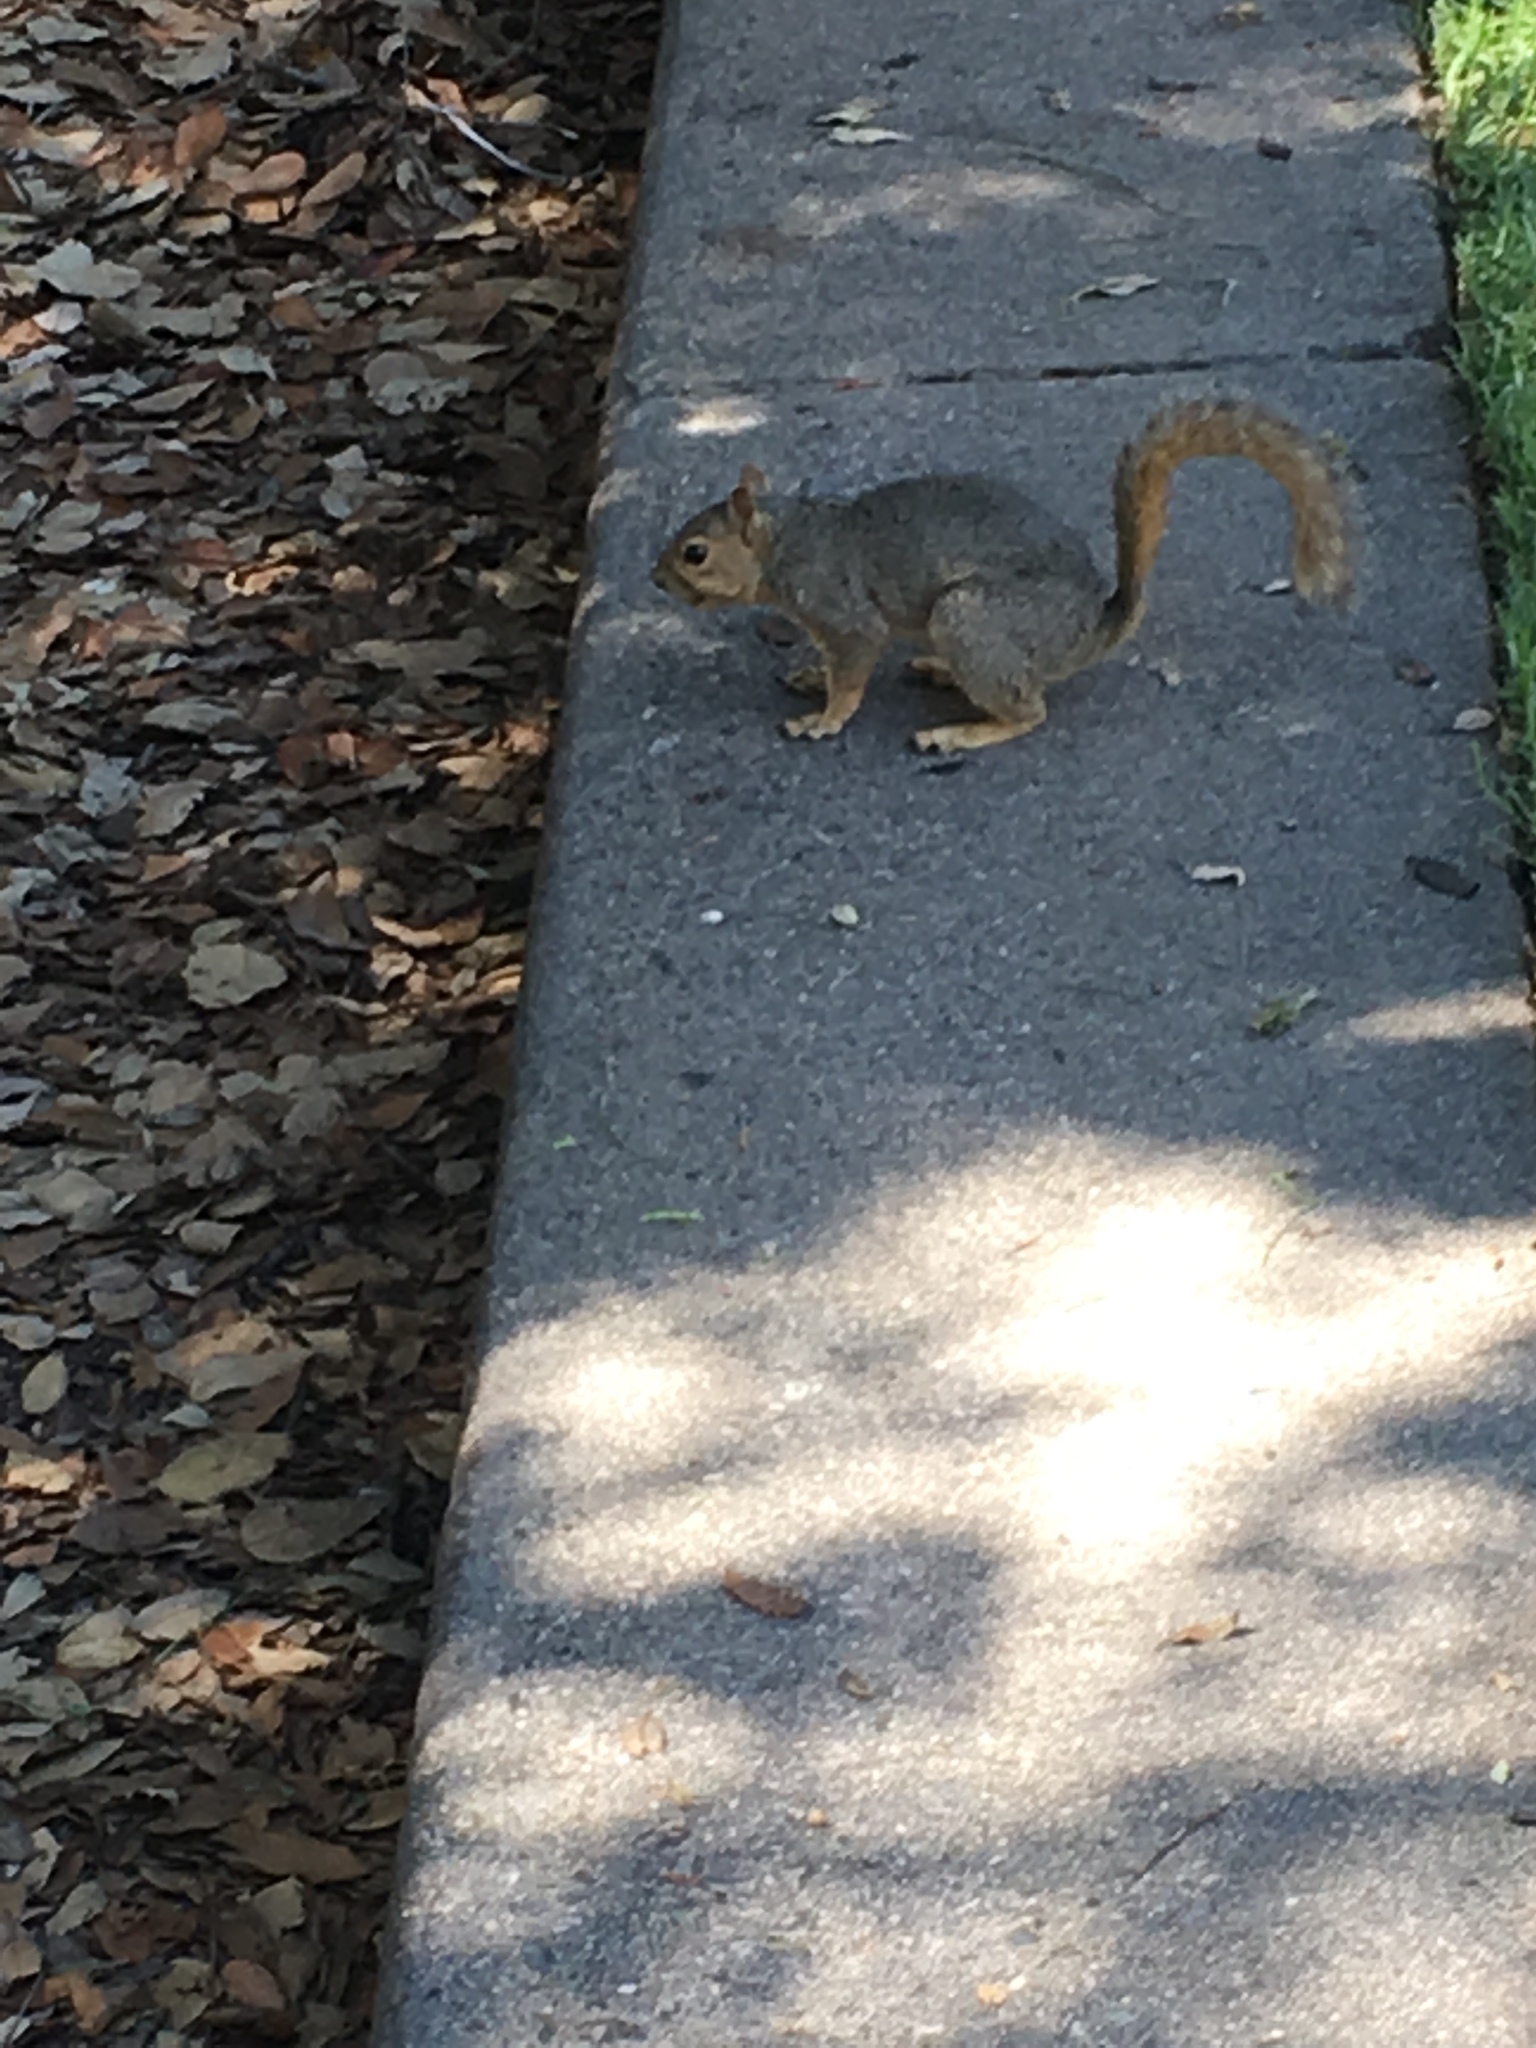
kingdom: Animalia
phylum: Chordata
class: Mammalia
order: Rodentia
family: Sciuridae
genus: Sciurus
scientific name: Sciurus niger
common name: Fox squirrel
